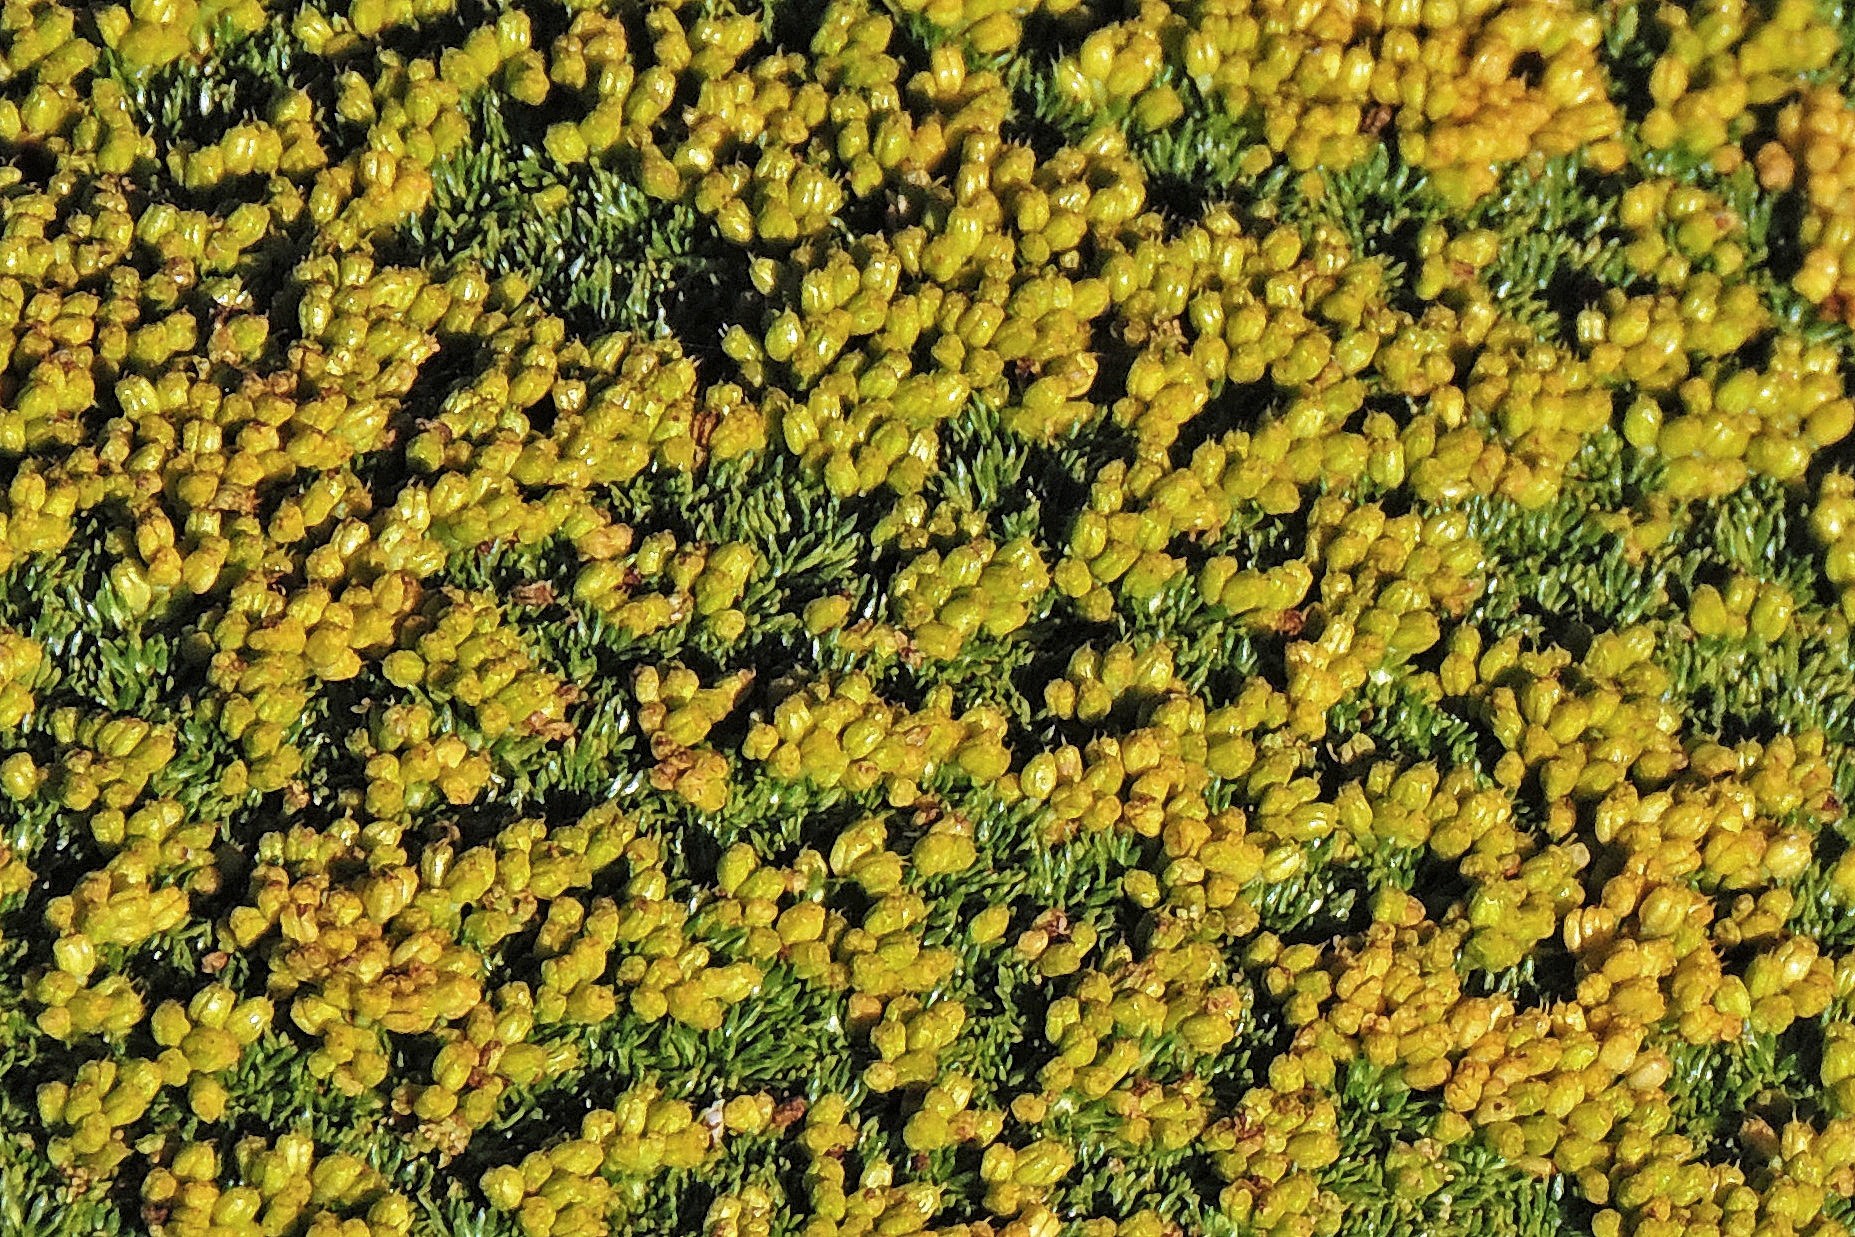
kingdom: Plantae
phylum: Tracheophyta
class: Magnoliopsida
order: Apiales
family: Apiaceae
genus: Azorella
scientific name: Azorella trifurcata
